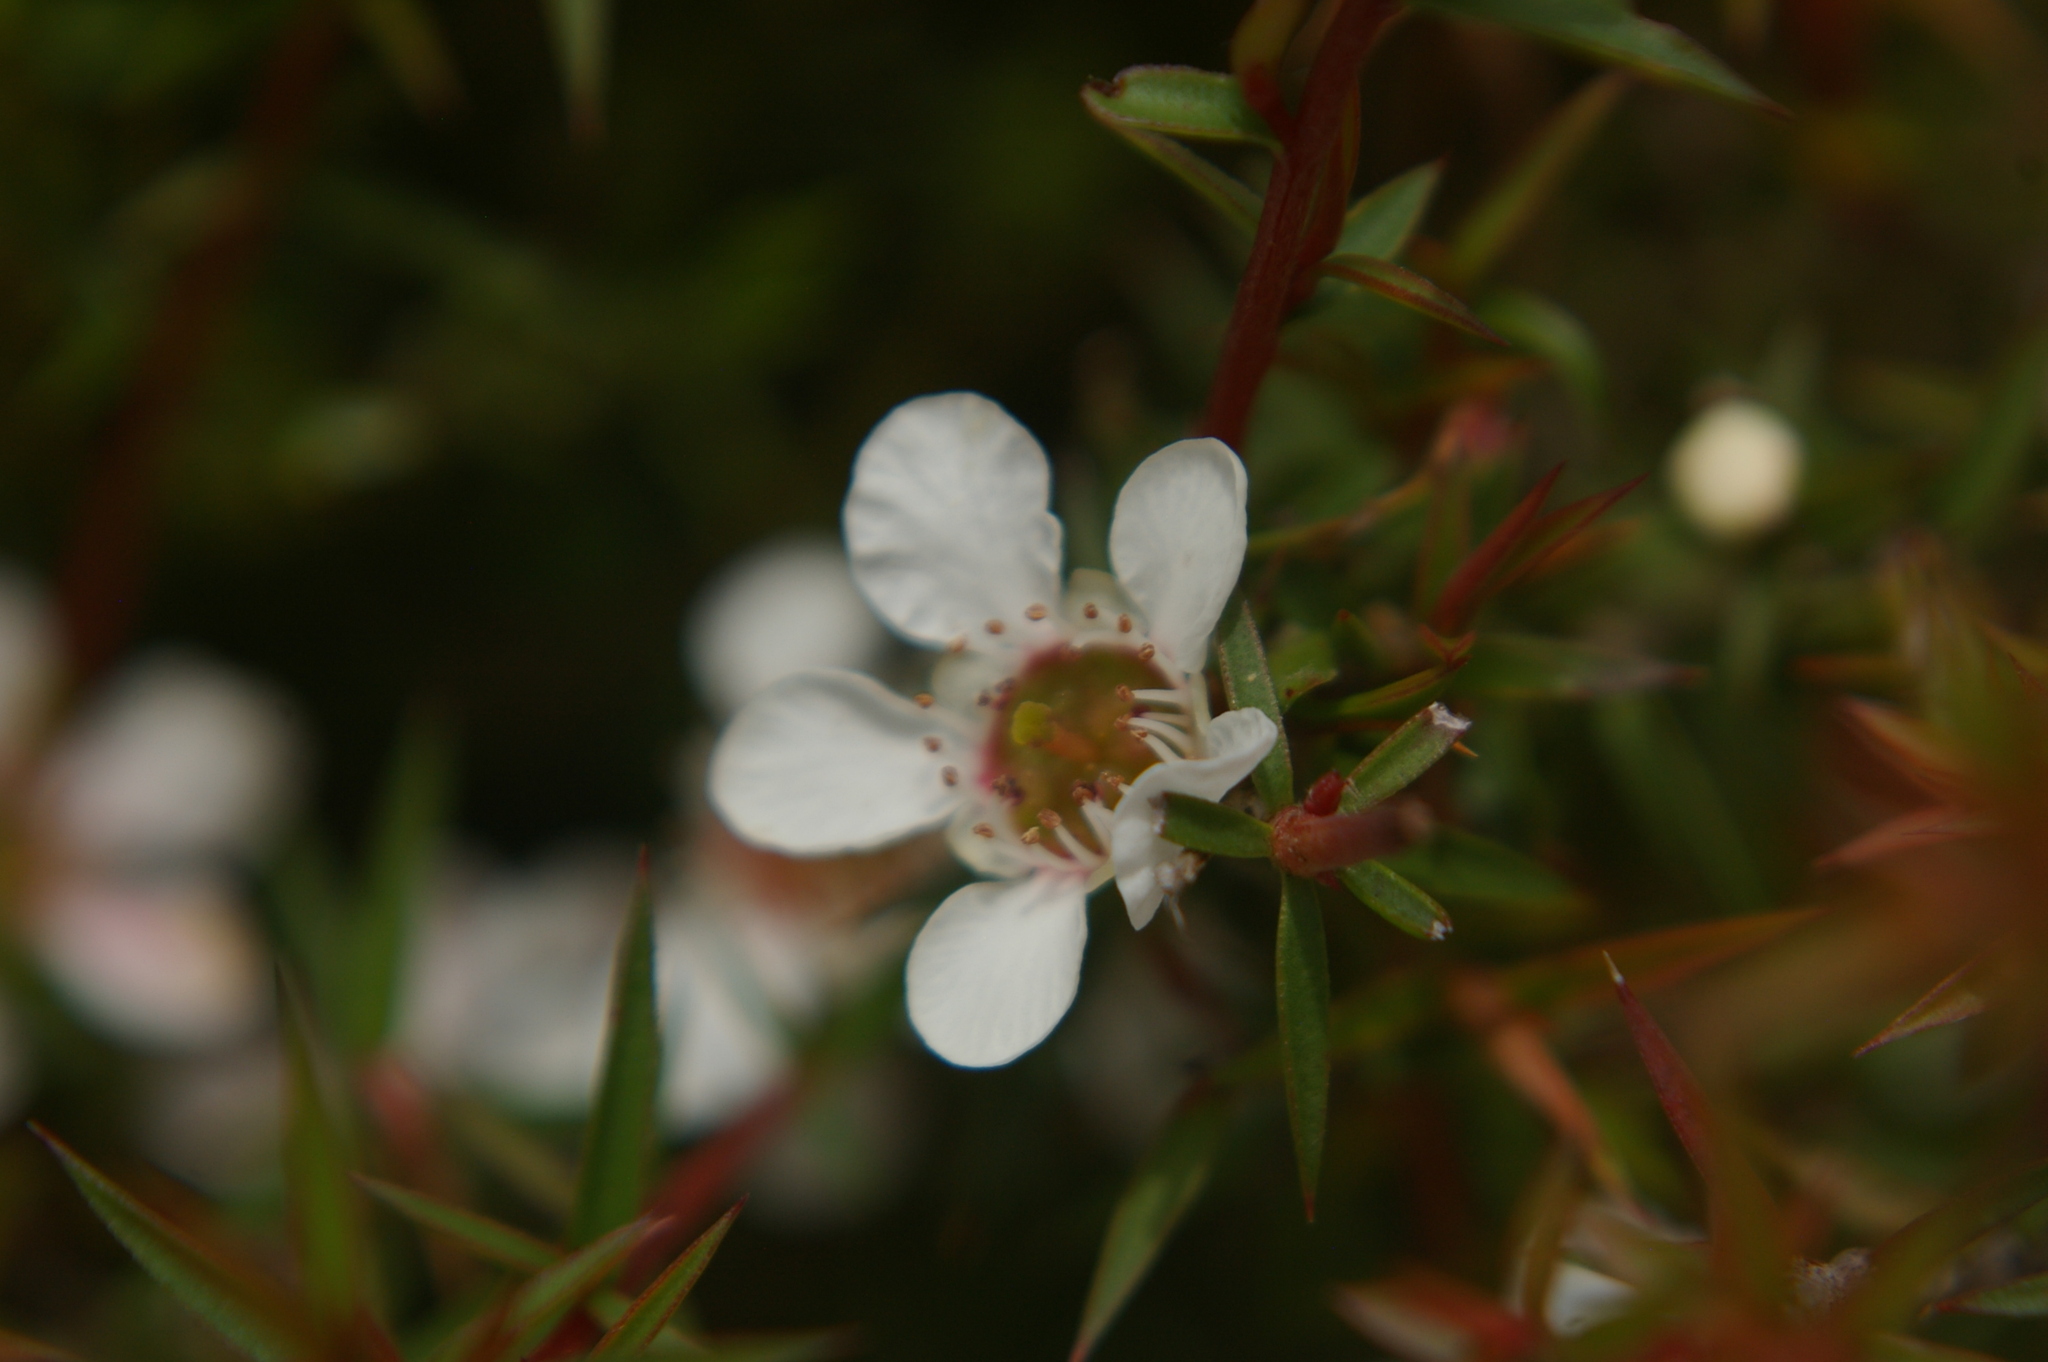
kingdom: Plantae
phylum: Tracheophyta
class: Magnoliopsida
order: Myrtales
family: Myrtaceae
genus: Leptospermum
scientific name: Leptospermum continentale
